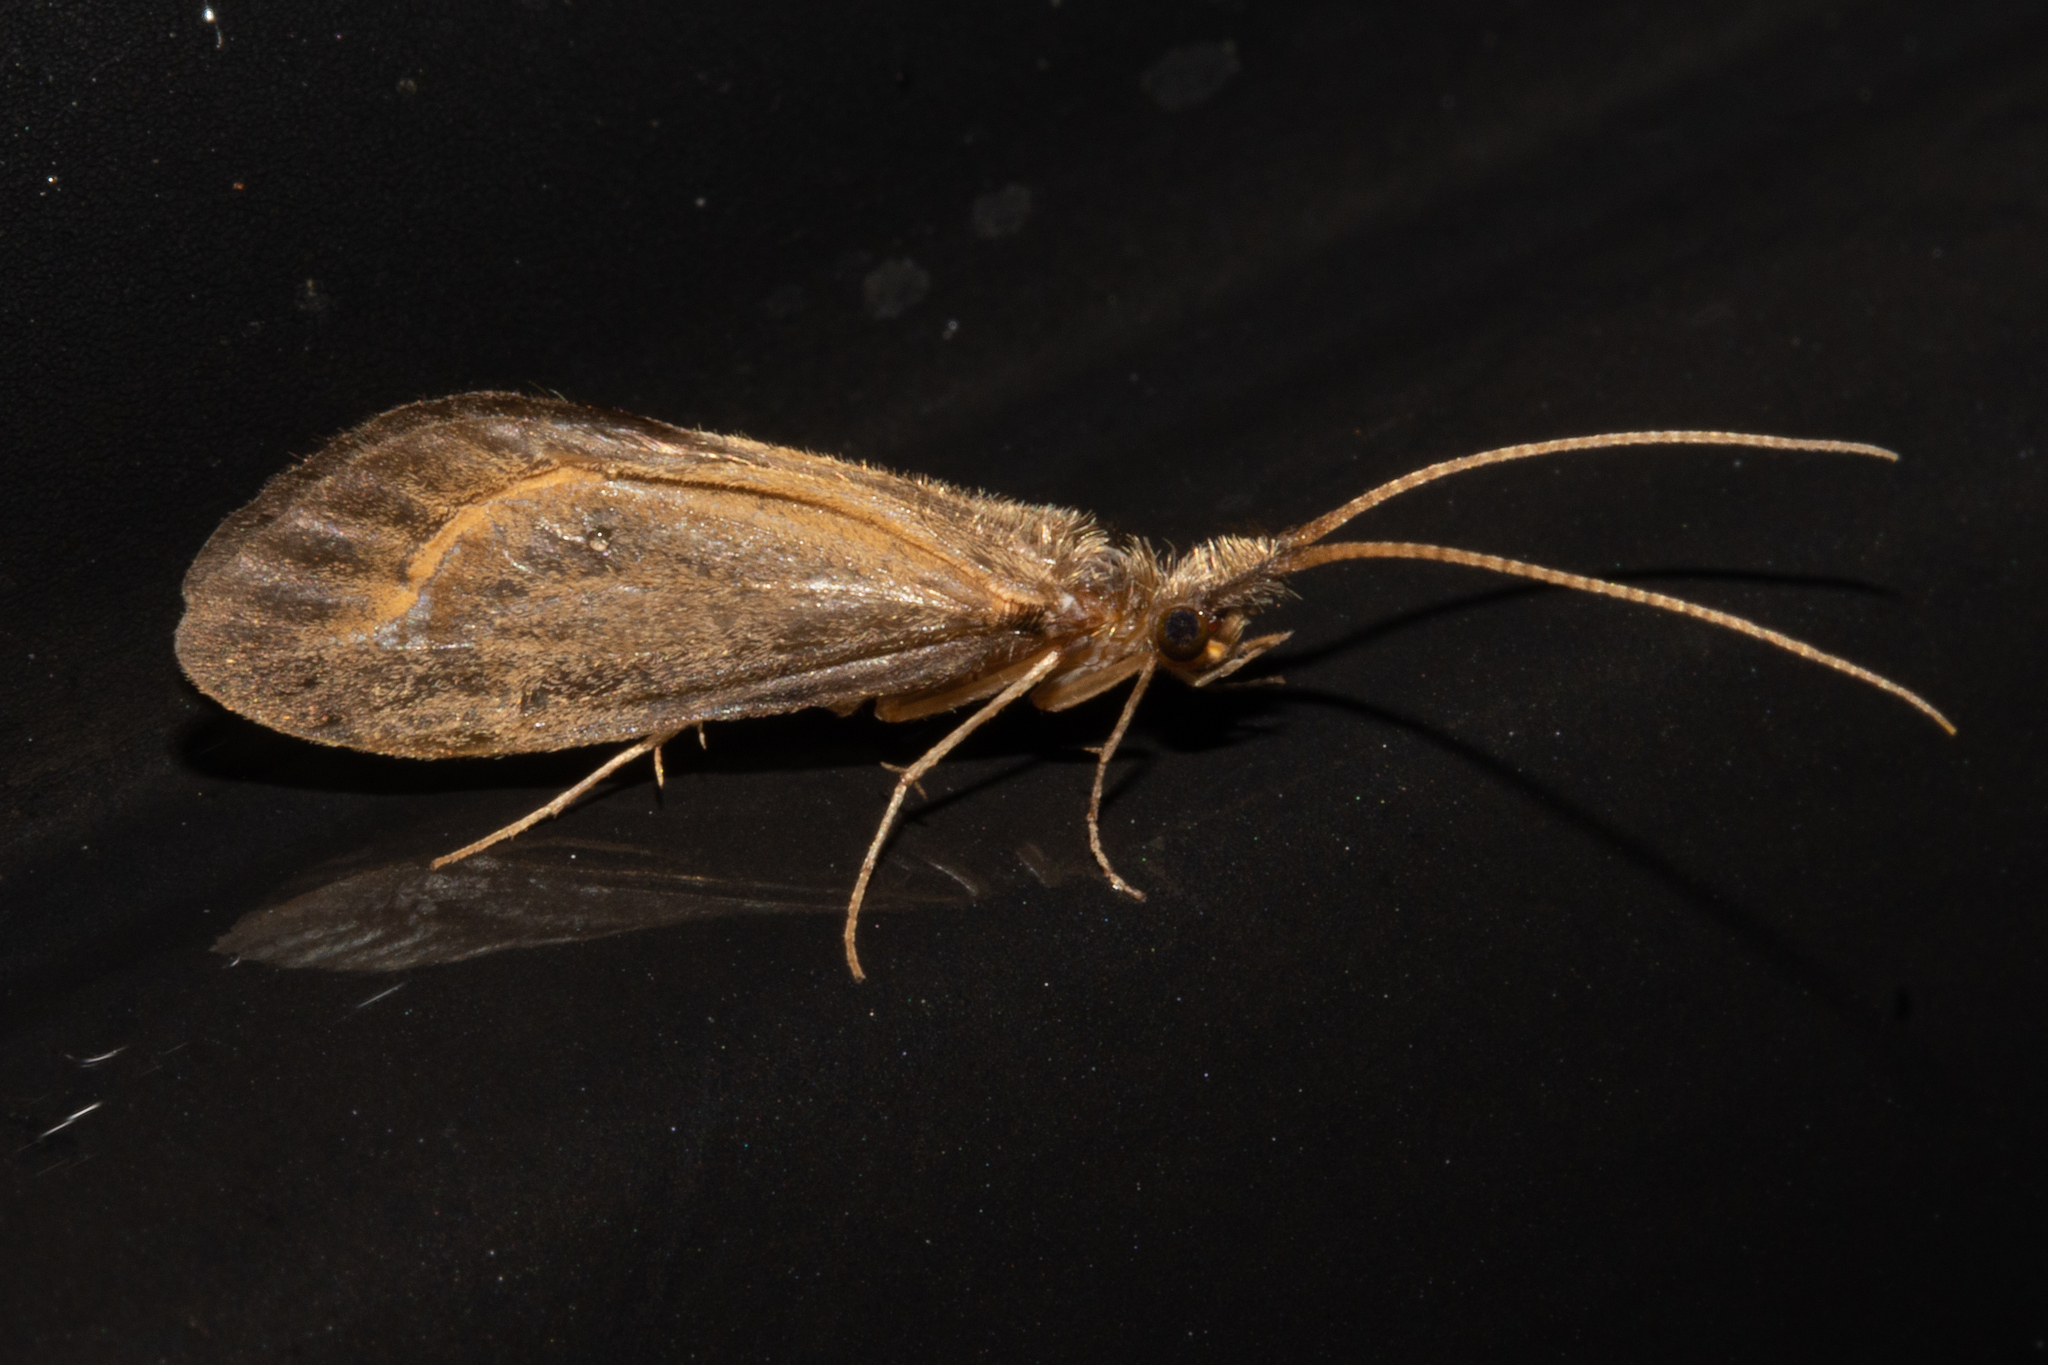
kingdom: Animalia
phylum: Arthropoda
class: Insecta
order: Trichoptera
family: Conoesucidae
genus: Olinga
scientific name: Olinga feredayi
